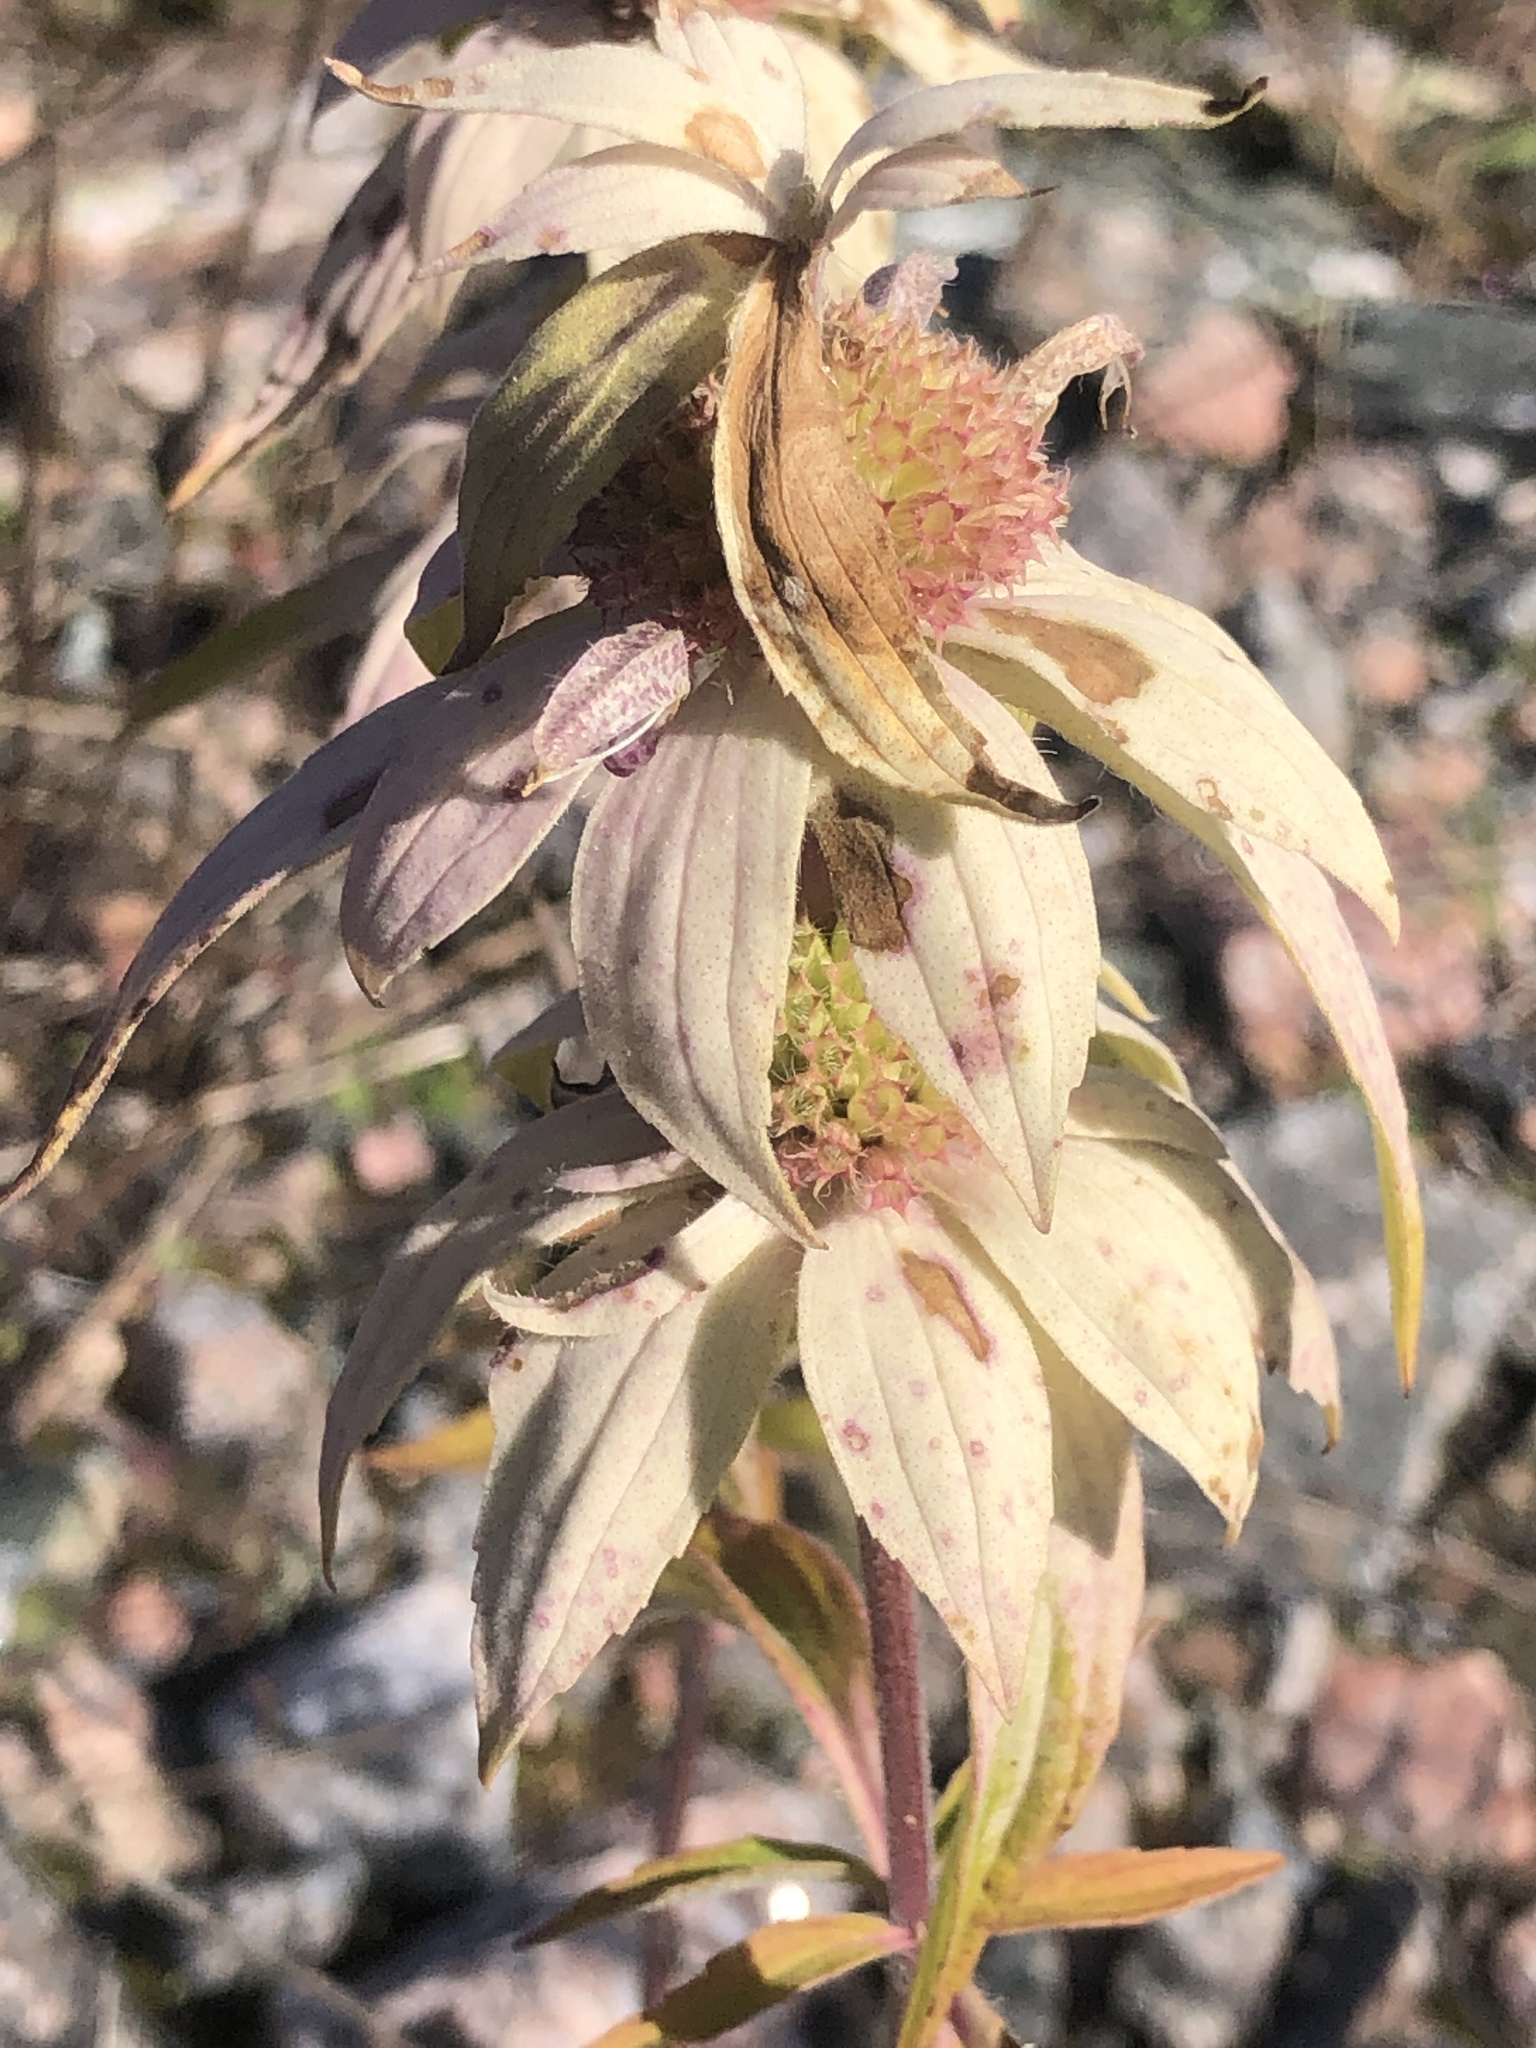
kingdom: Plantae
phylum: Tracheophyta
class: Magnoliopsida
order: Lamiales
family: Lamiaceae
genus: Monarda
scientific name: Monarda punctata
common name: Dotted monarda
